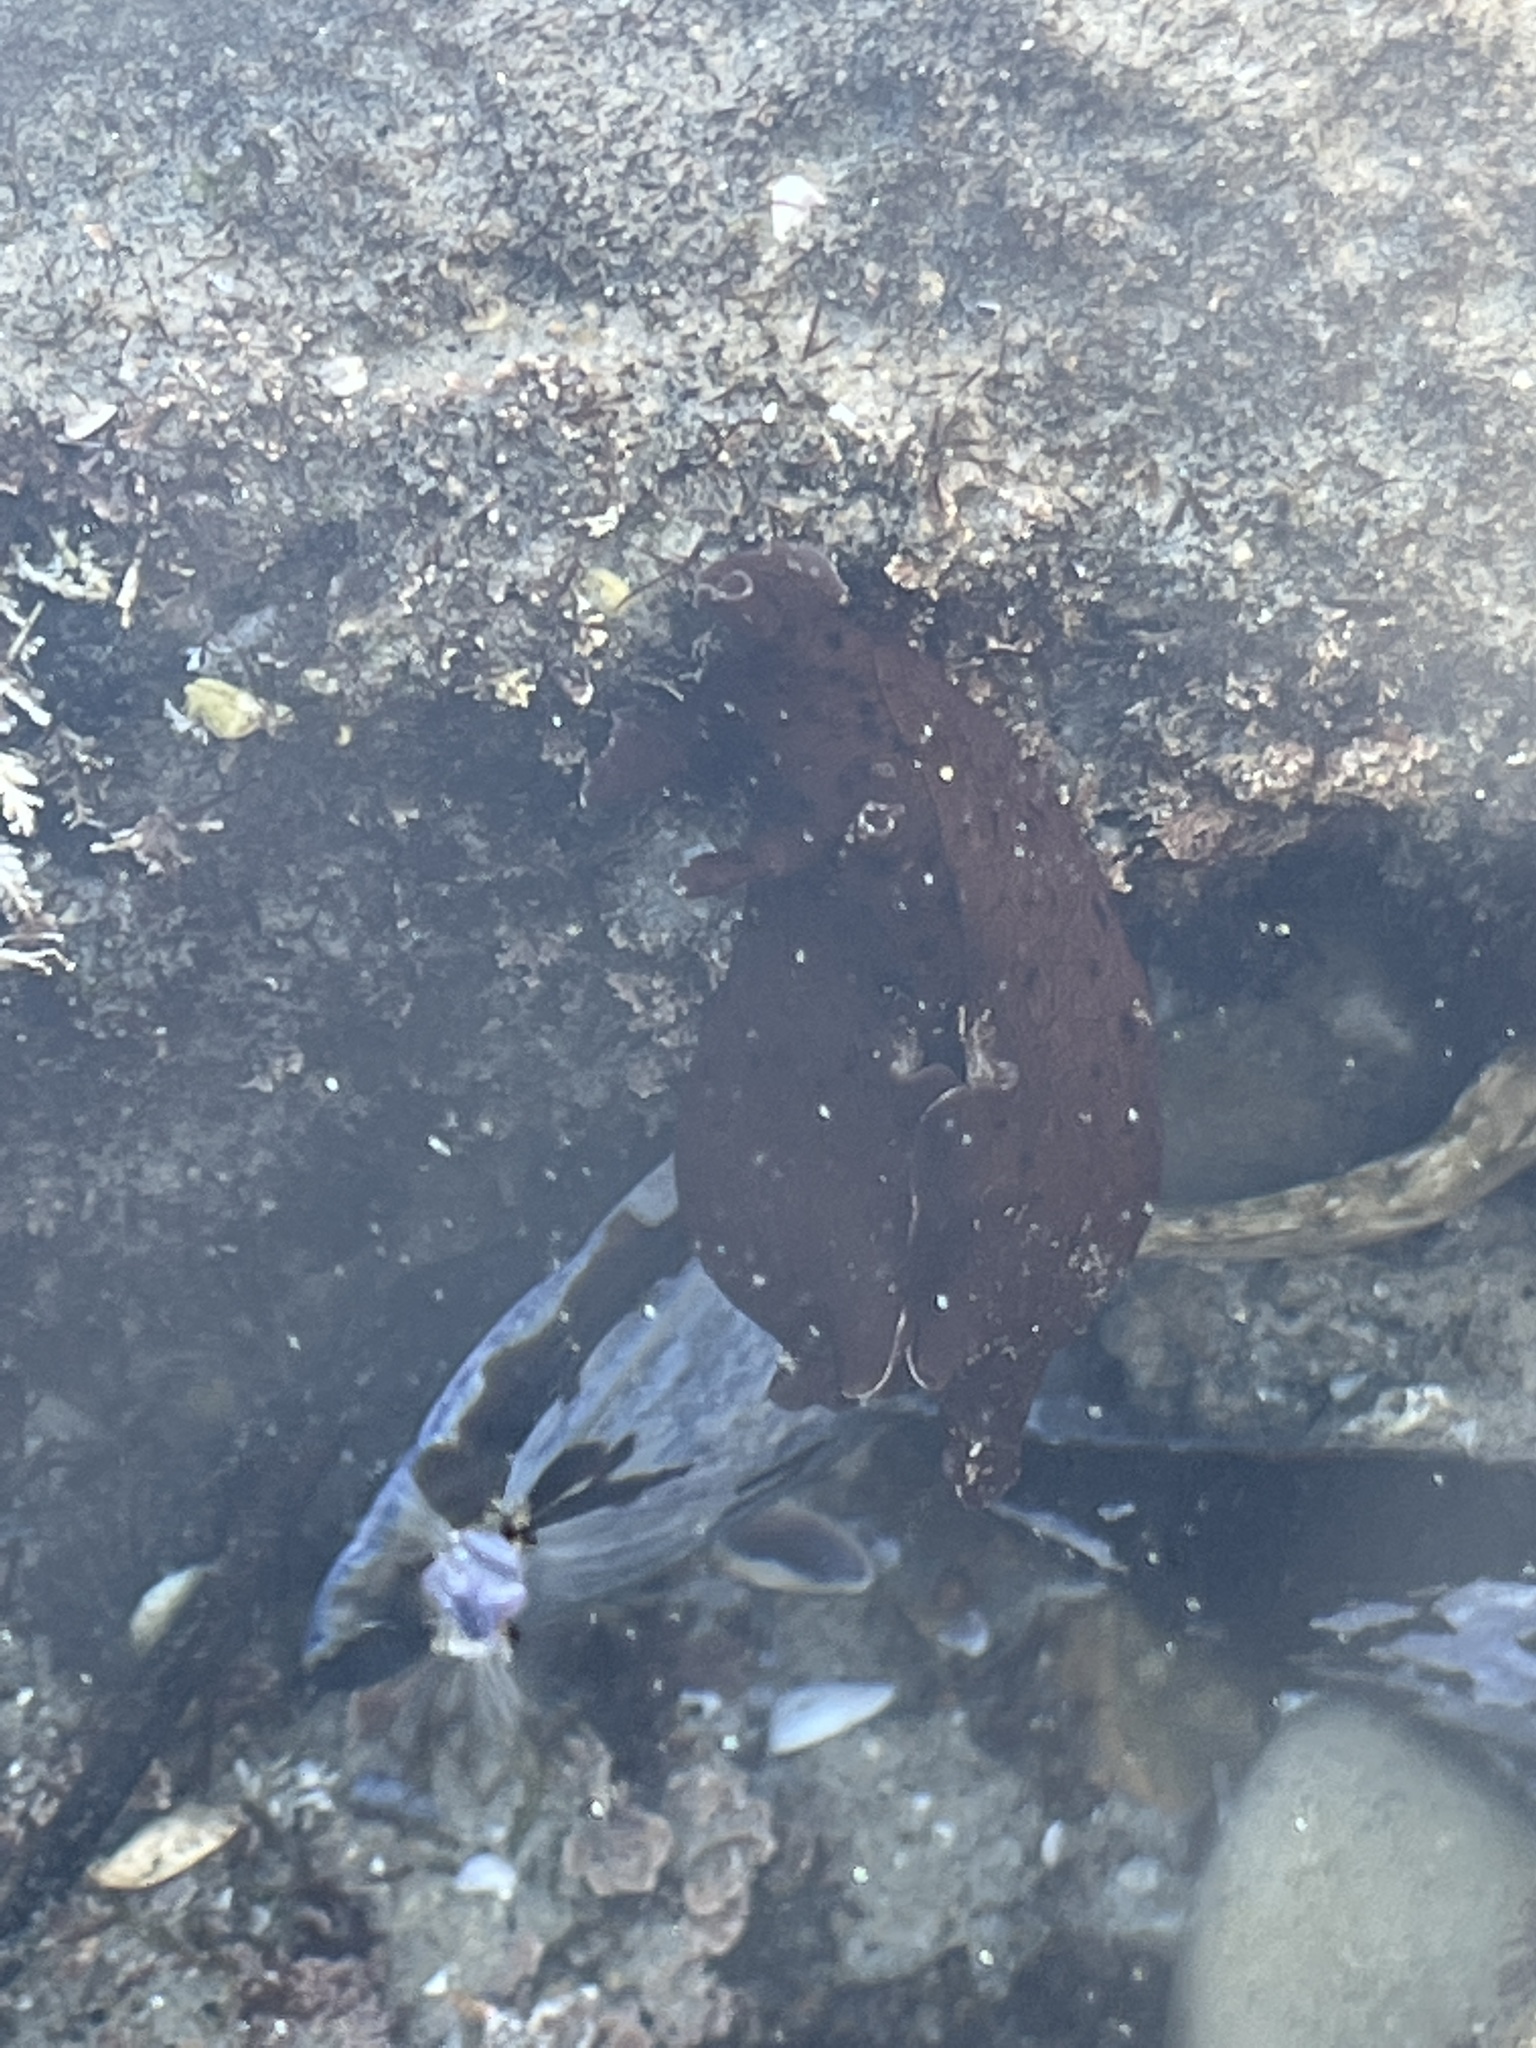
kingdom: Animalia
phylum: Mollusca
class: Gastropoda
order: Aplysiida
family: Aplysiidae
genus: Aplysia
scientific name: Aplysia californica
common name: California seahare
